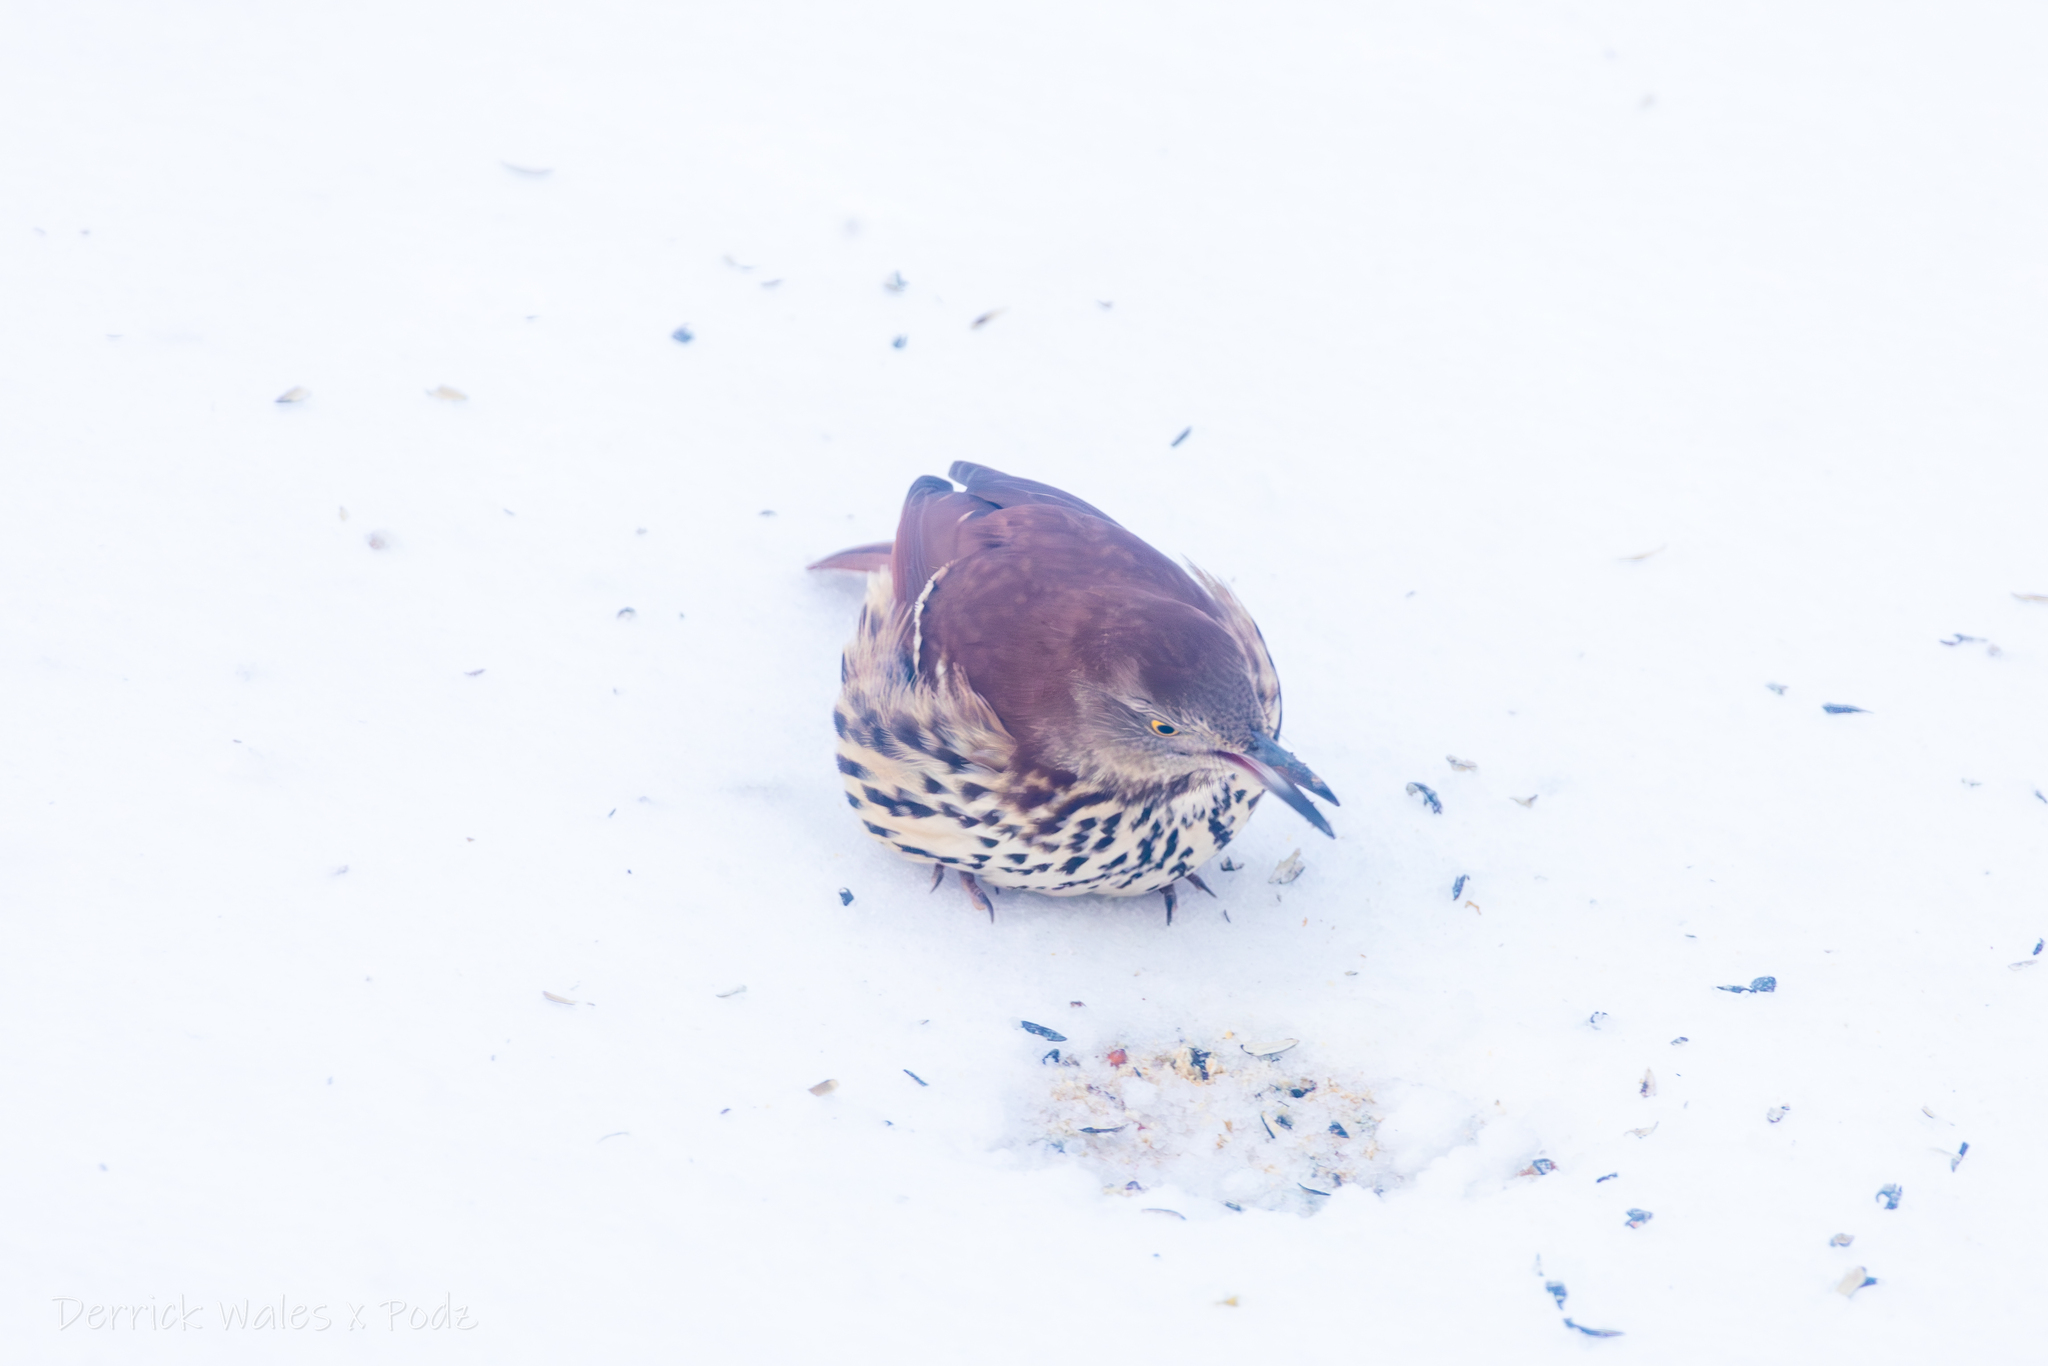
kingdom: Animalia
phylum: Chordata
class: Aves
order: Passeriformes
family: Mimidae
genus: Toxostoma
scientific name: Toxostoma rufum
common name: Brown thrasher
